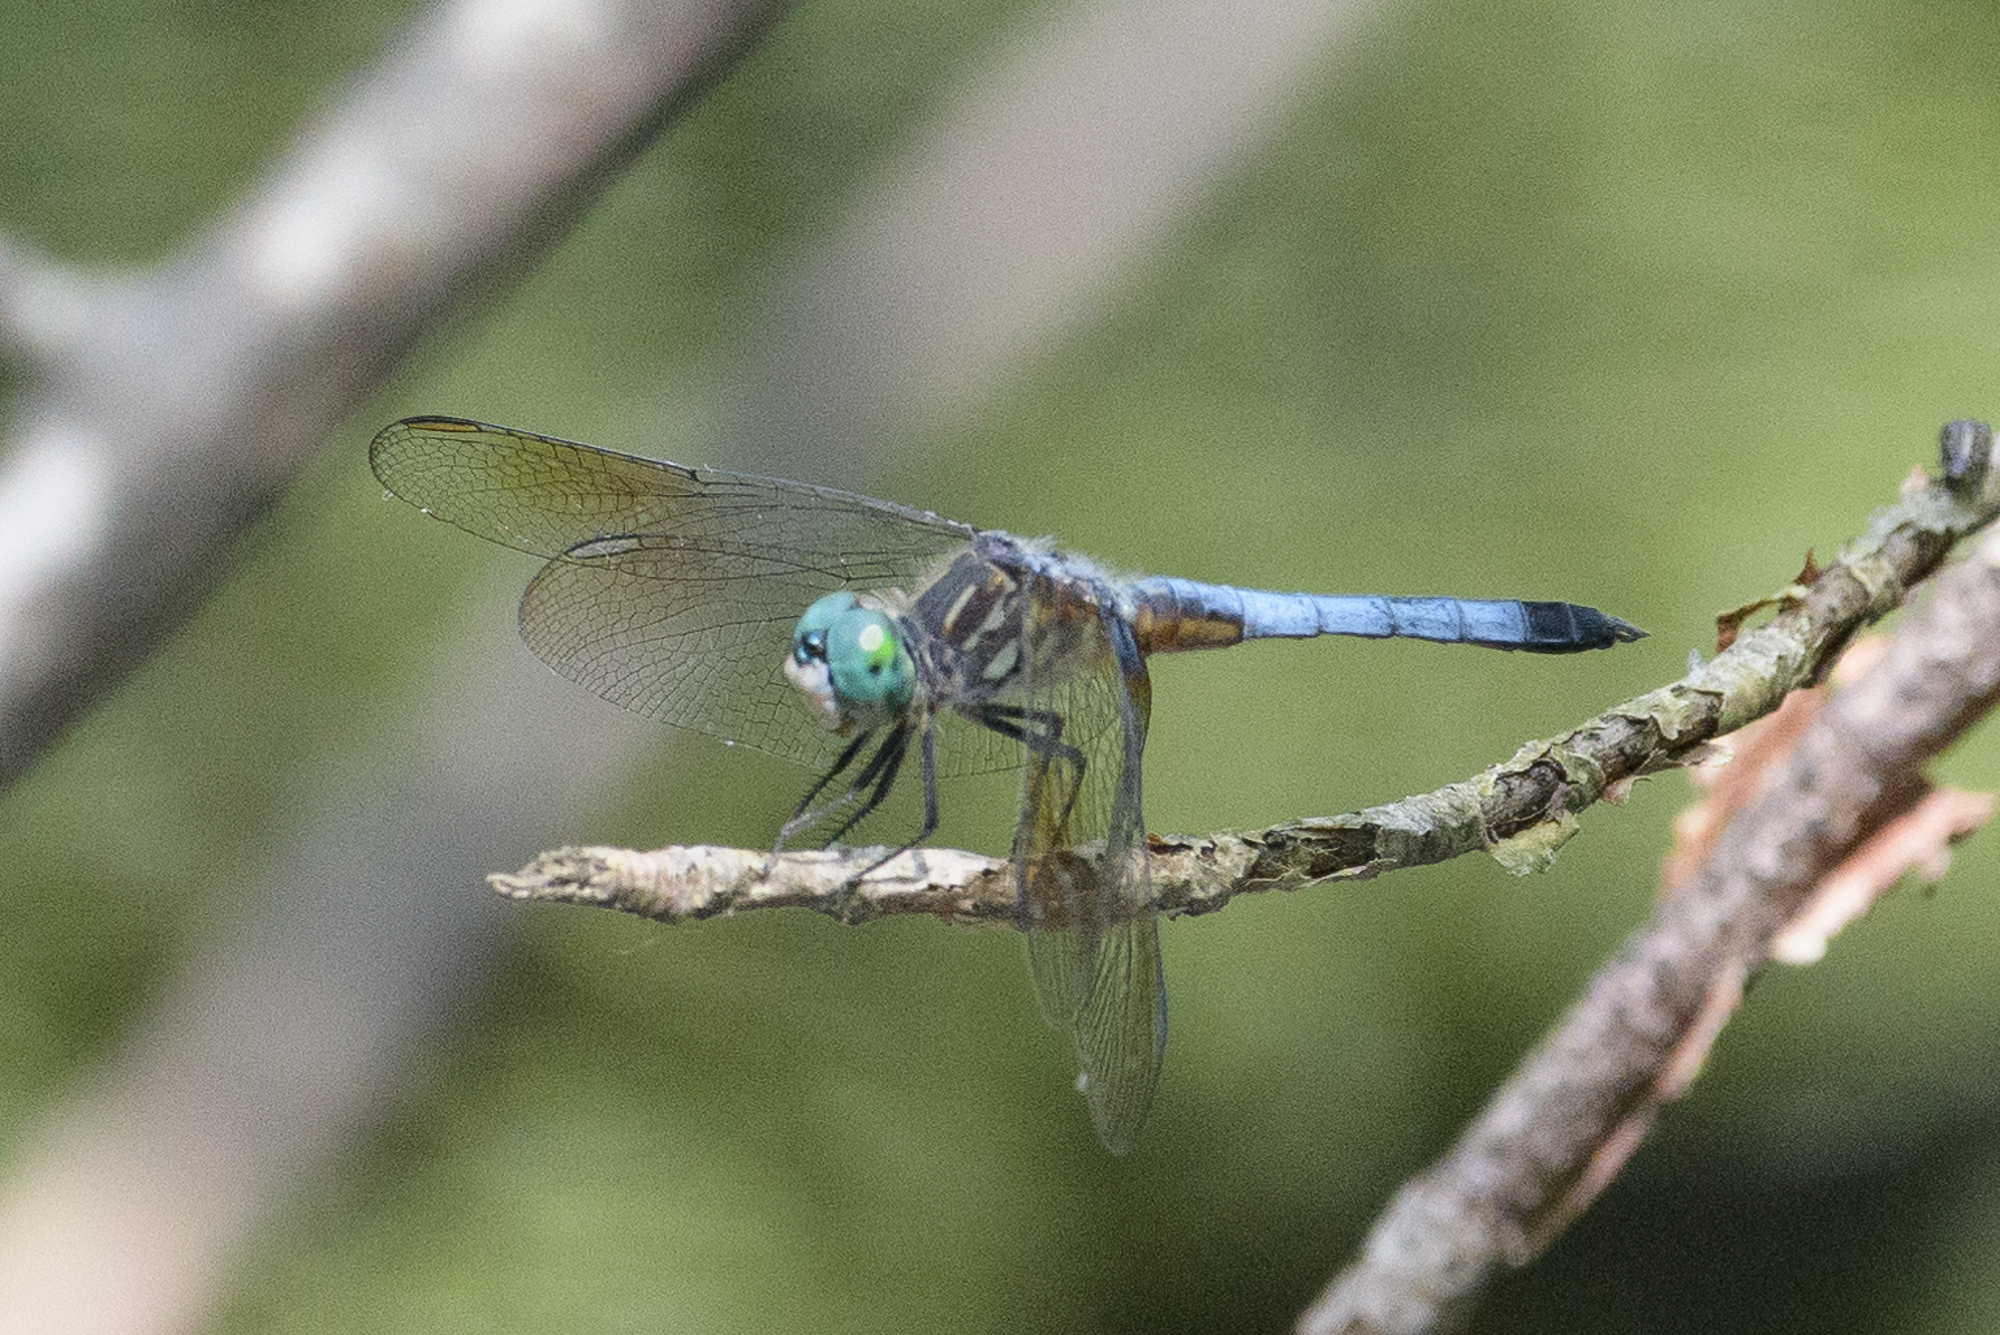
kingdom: Animalia
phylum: Arthropoda
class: Insecta
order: Odonata
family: Libellulidae
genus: Pachydiplax
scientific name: Pachydiplax longipennis
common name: Blue dasher
